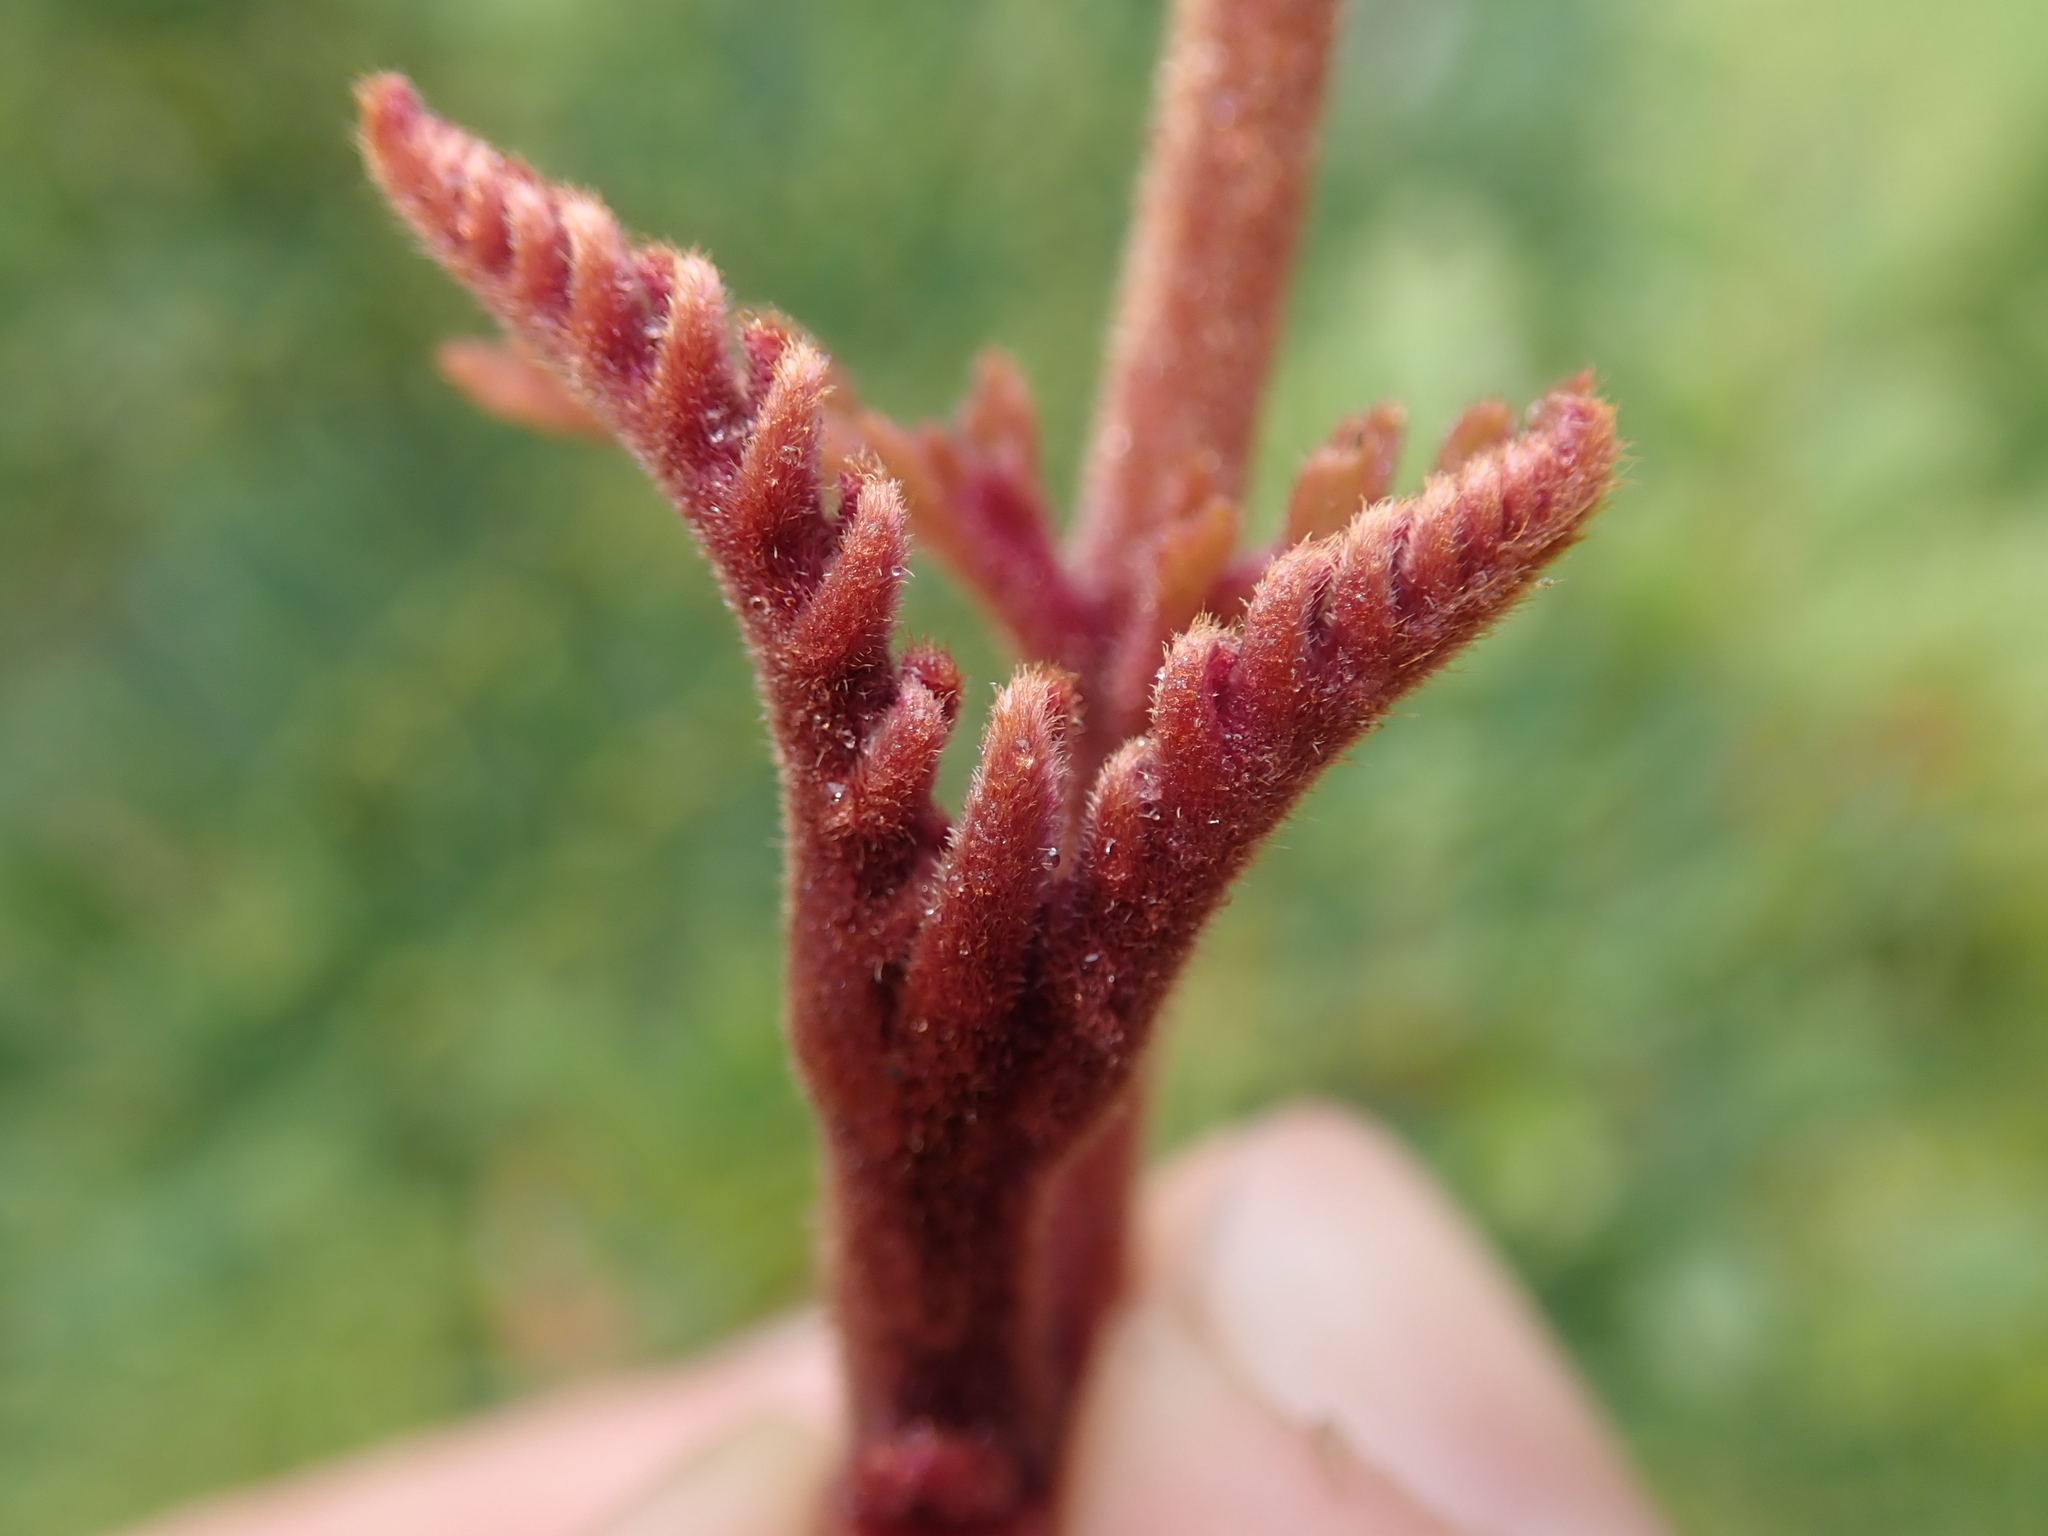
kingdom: Plantae
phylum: Tracheophyta
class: Magnoliopsida
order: Proteales
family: Proteaceae
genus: Lomatia
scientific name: Lomatia ferruginea
